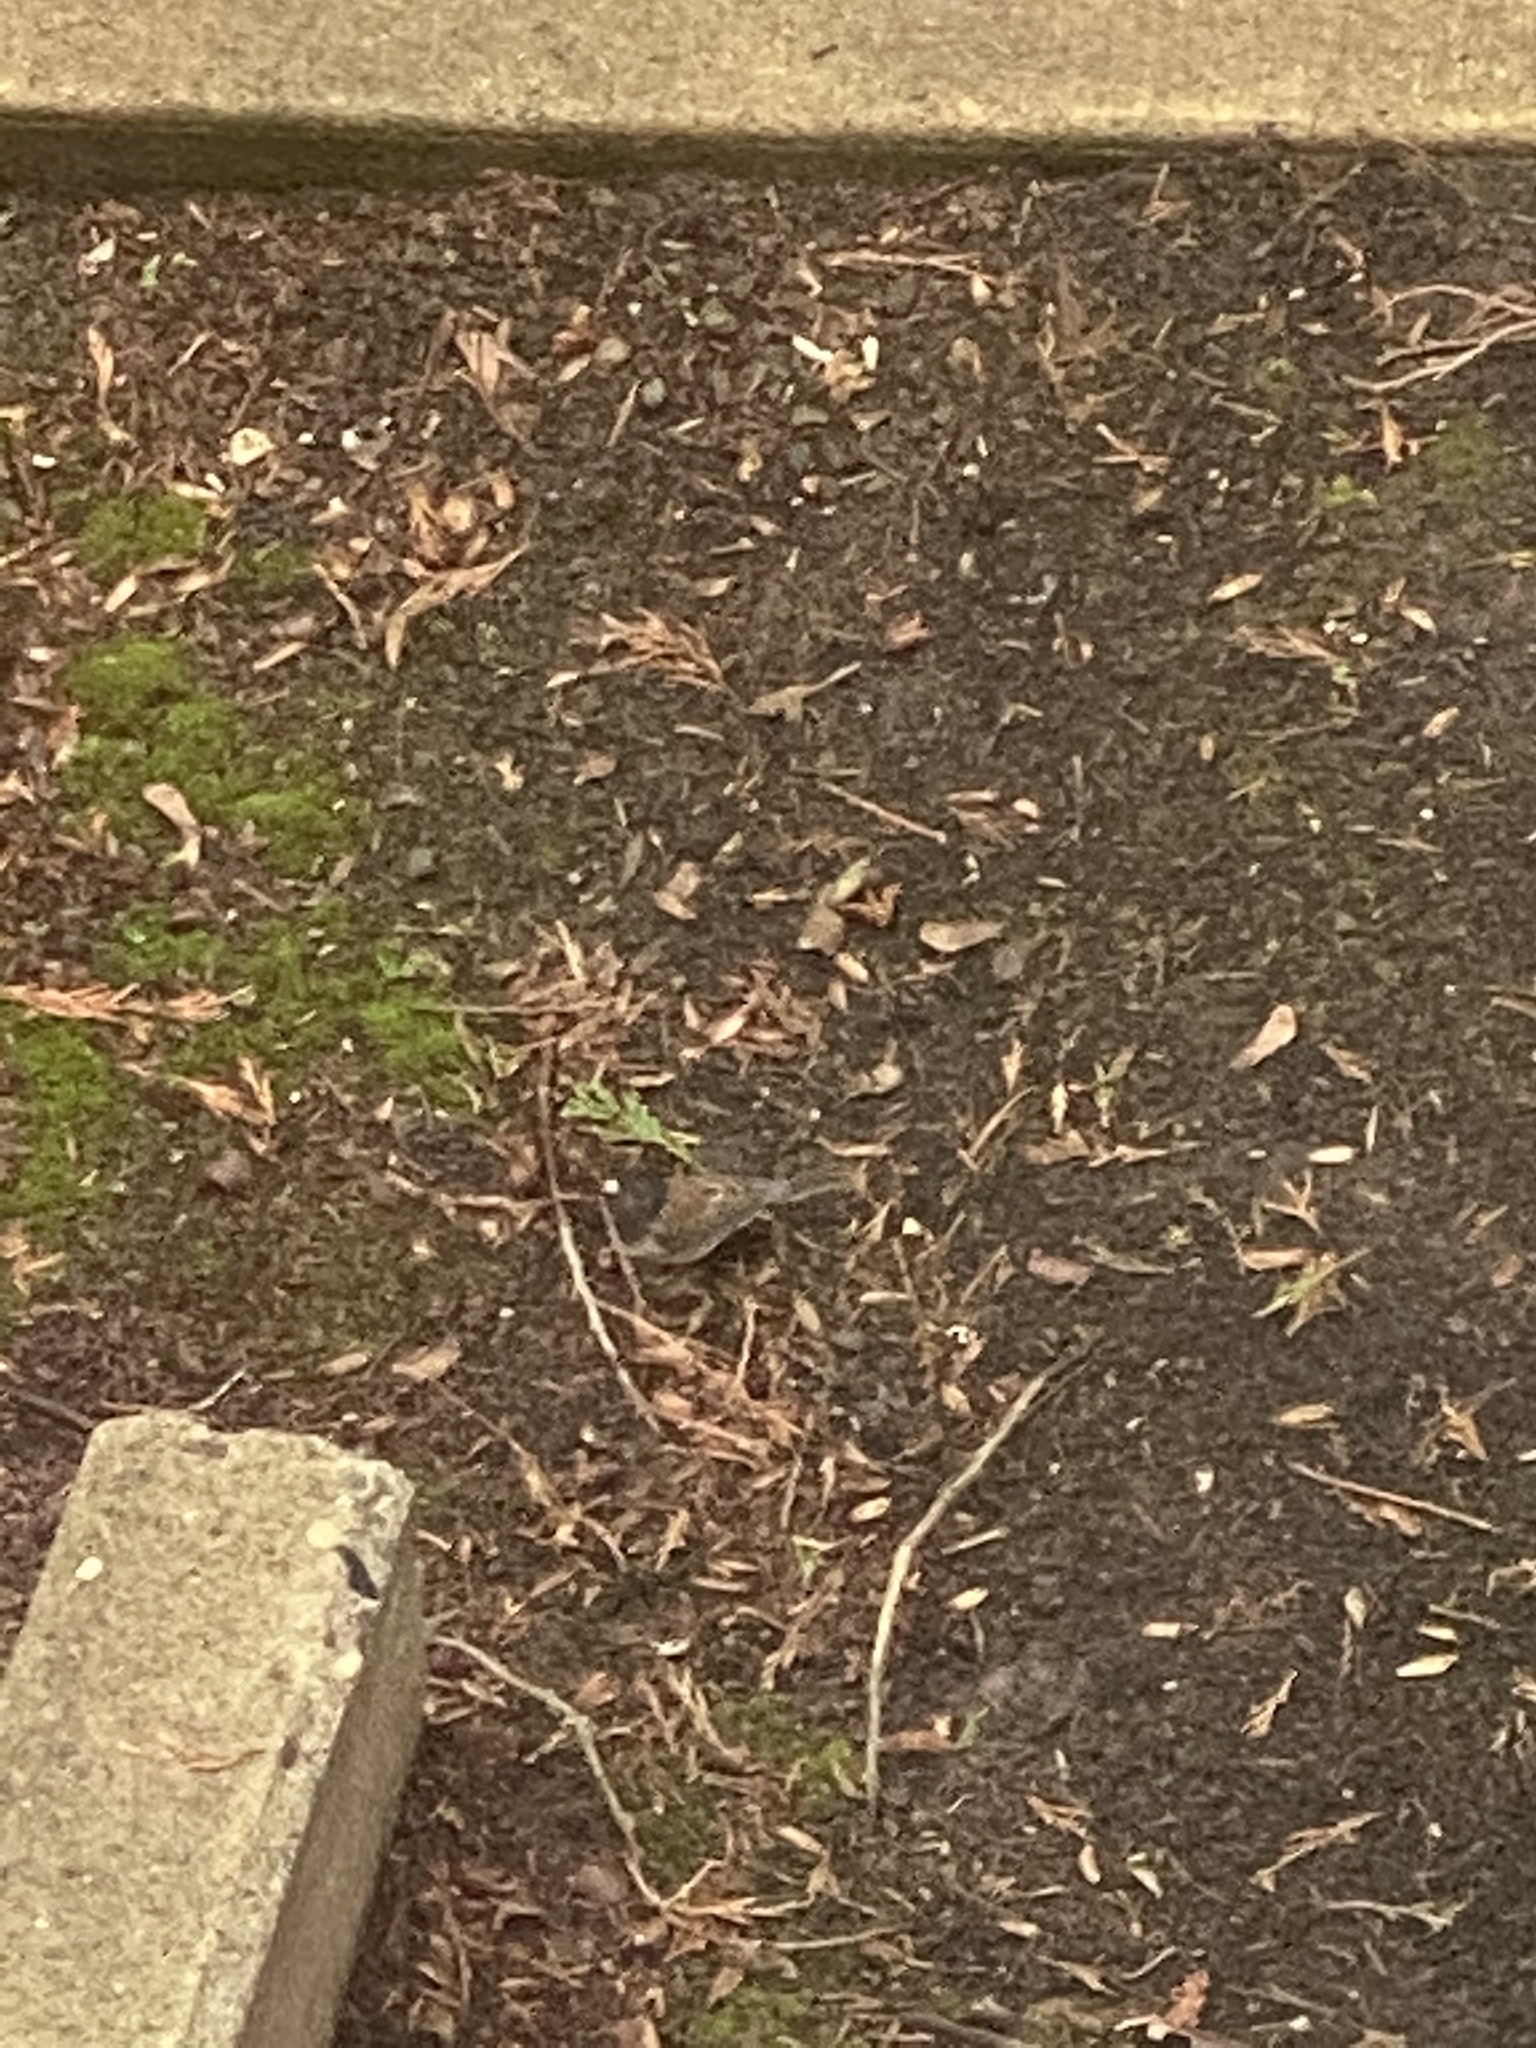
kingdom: Animalia
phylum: Chordata
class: Aves
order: Passeriformes
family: Passerellidae
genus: Junco
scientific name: Junco hyemalis
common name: Dark-eyed junco
